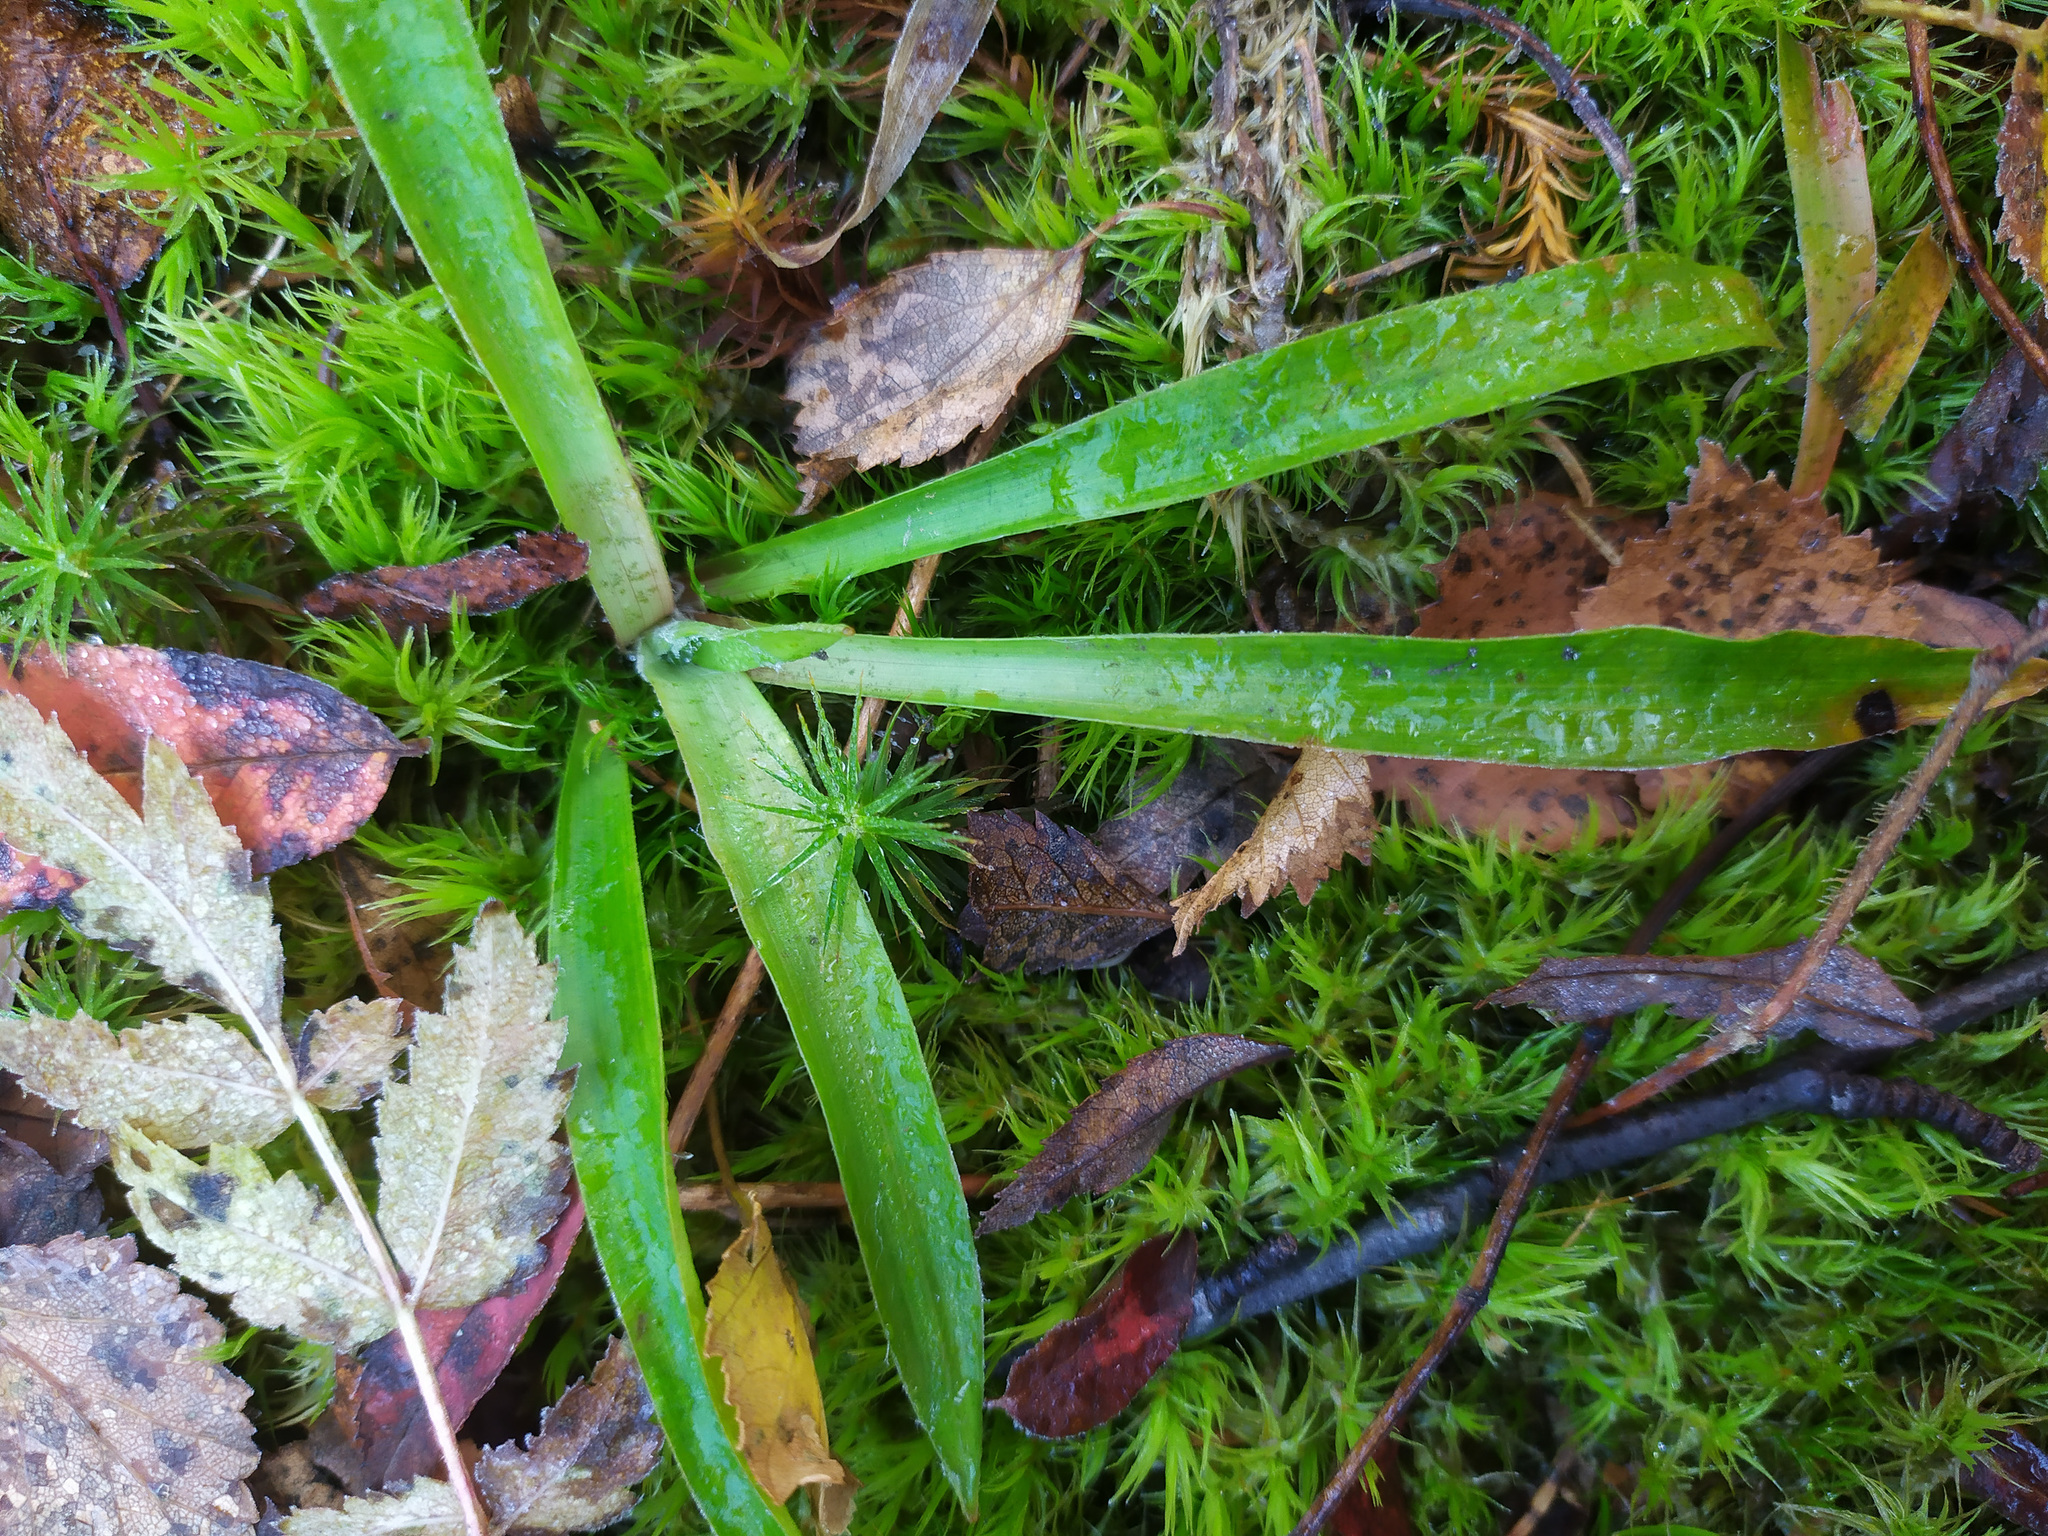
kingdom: Plantae
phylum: Tracheophyta
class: Liliopsida
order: Poales
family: Juncaceae
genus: Luzula
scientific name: Luzula pilosa
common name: Hairy wood-rush
